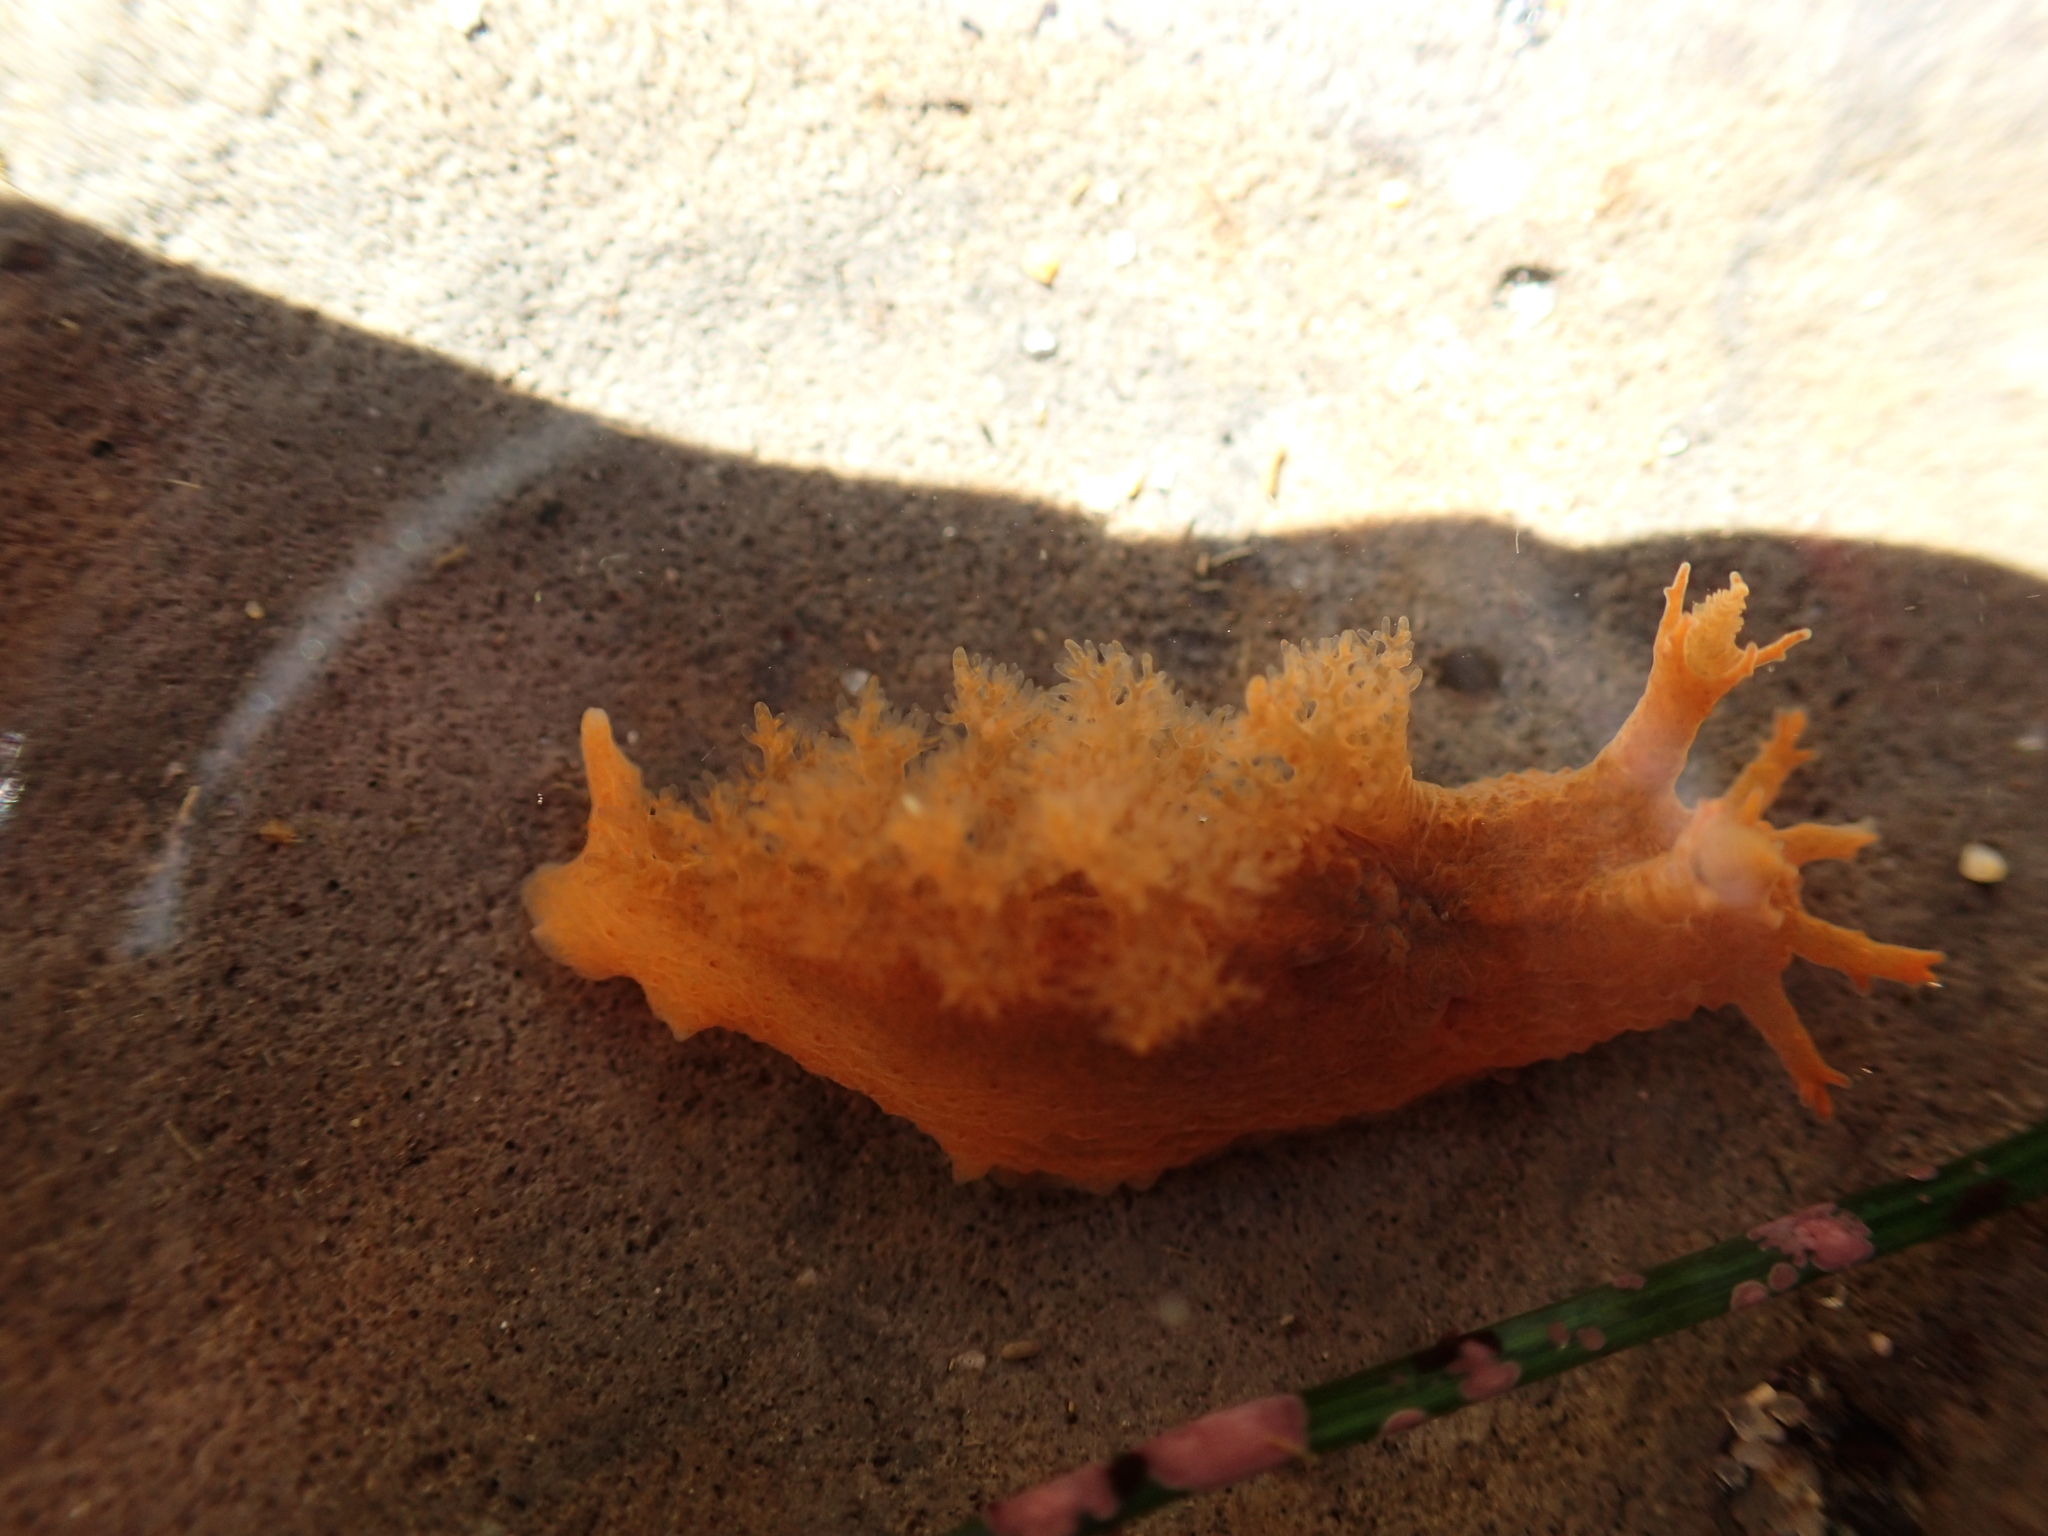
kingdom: Animalia
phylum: Mollusca
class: Gastropoda
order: Nudibranchia
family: Dendronotidae
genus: Dendronotus
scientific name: Dendronotus subramosus
